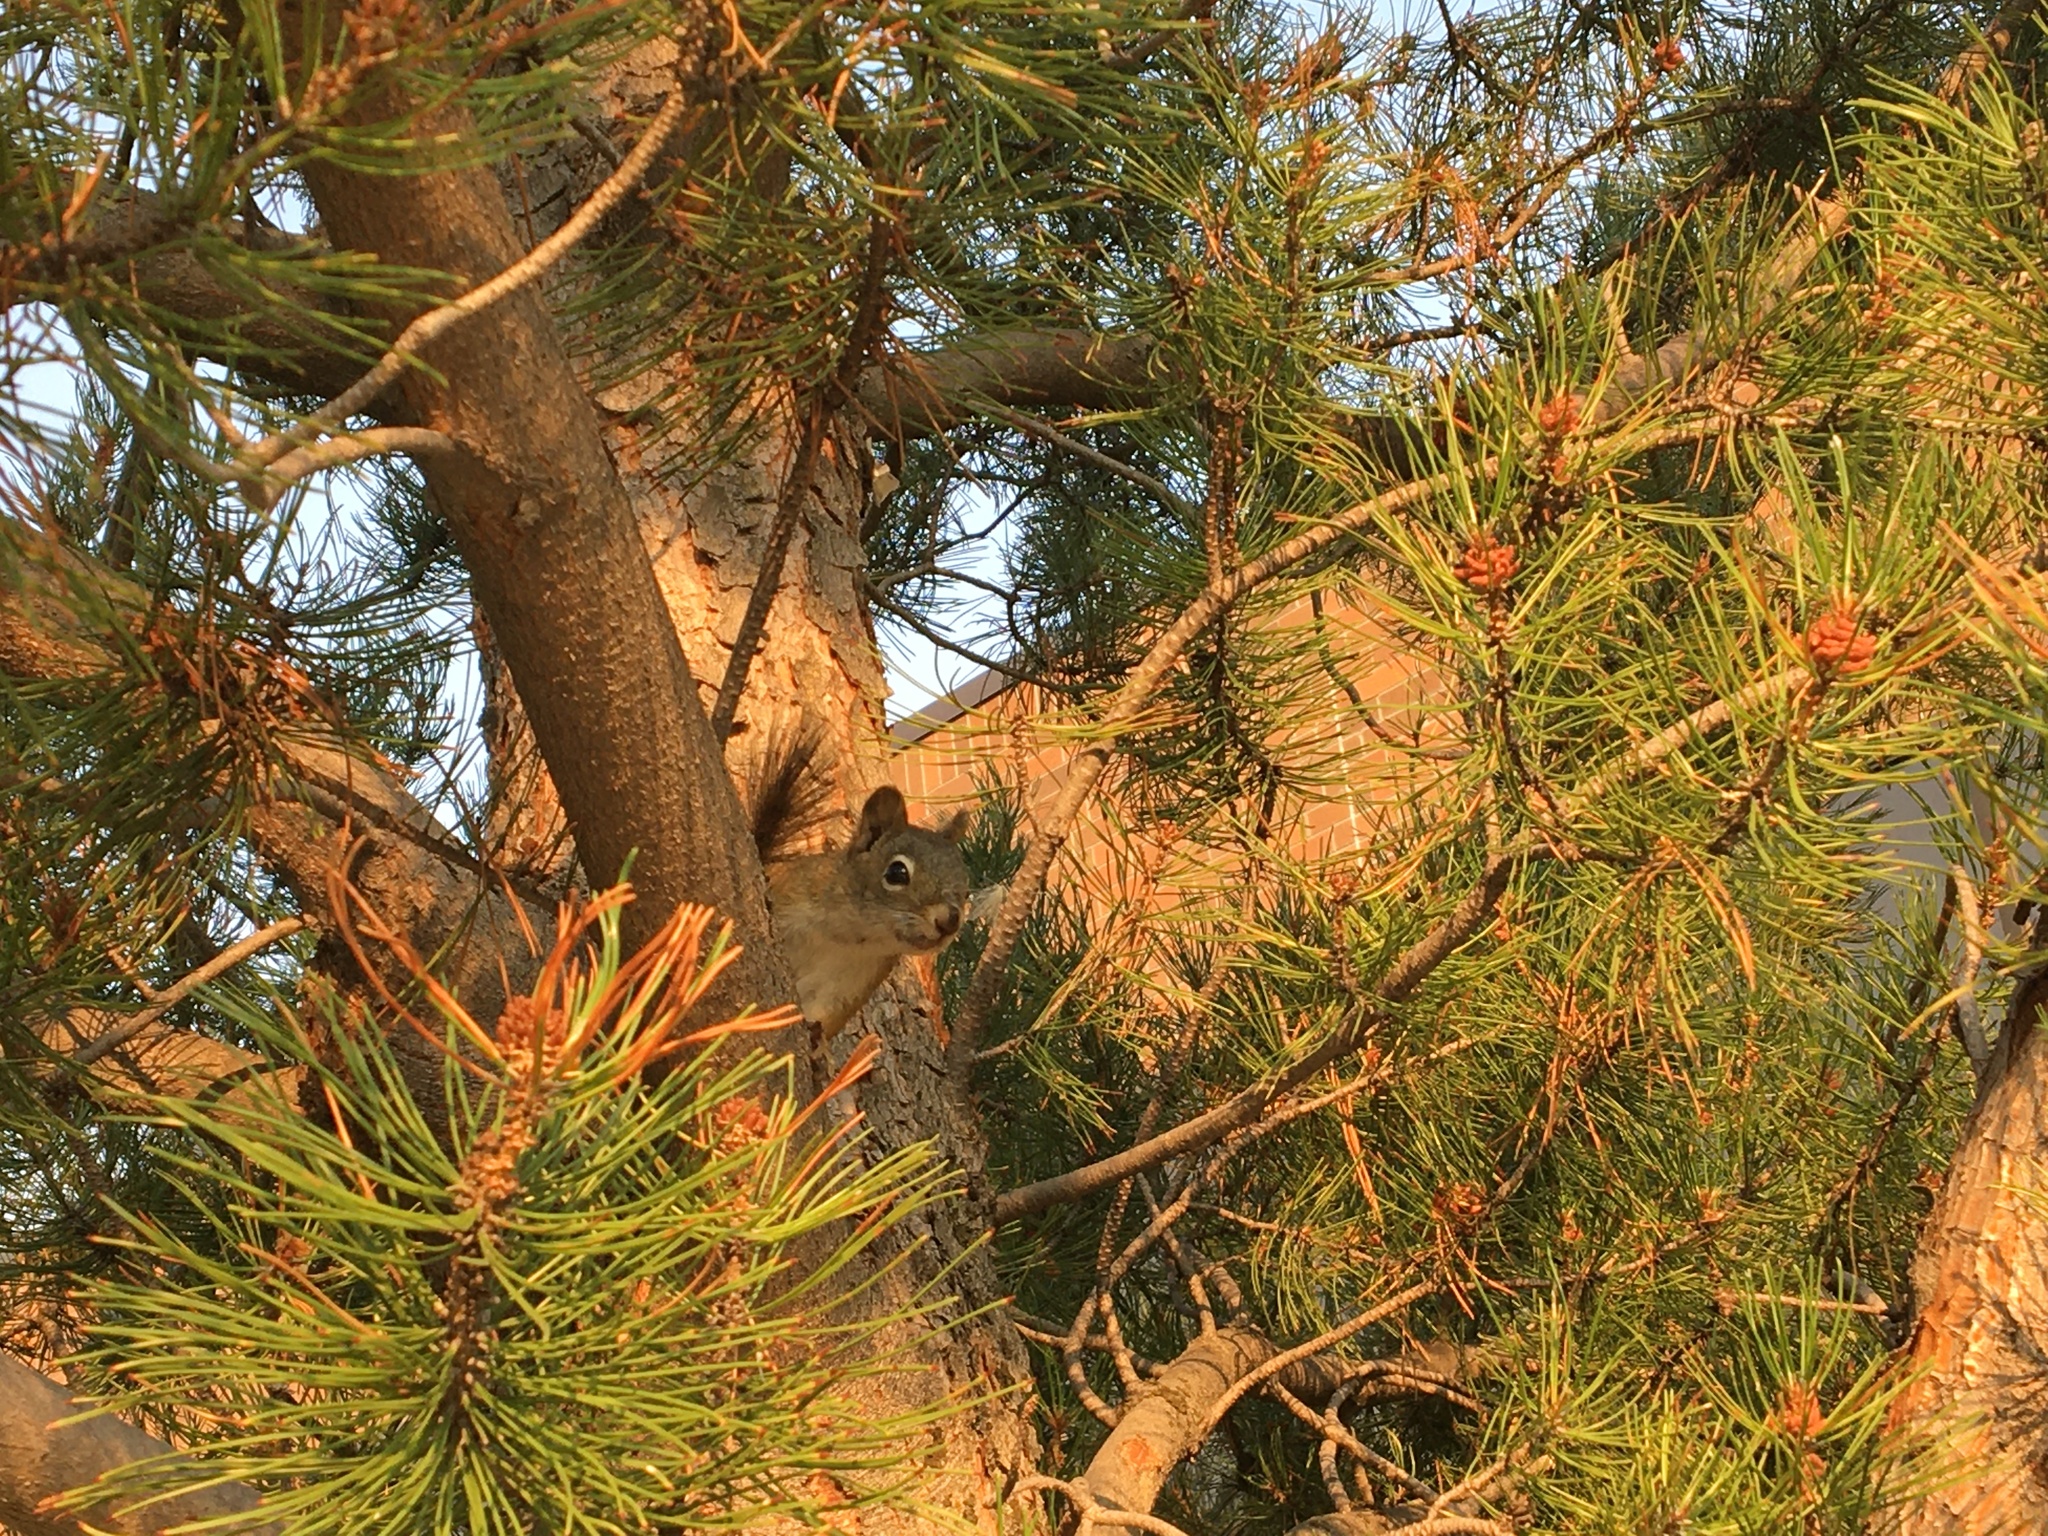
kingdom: Animalia
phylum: Chordata
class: Mammalia
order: Rodentia
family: Sciuridae
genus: Tamiasciurus
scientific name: Tamiasciurus hudsonicus
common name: Red squirrel
